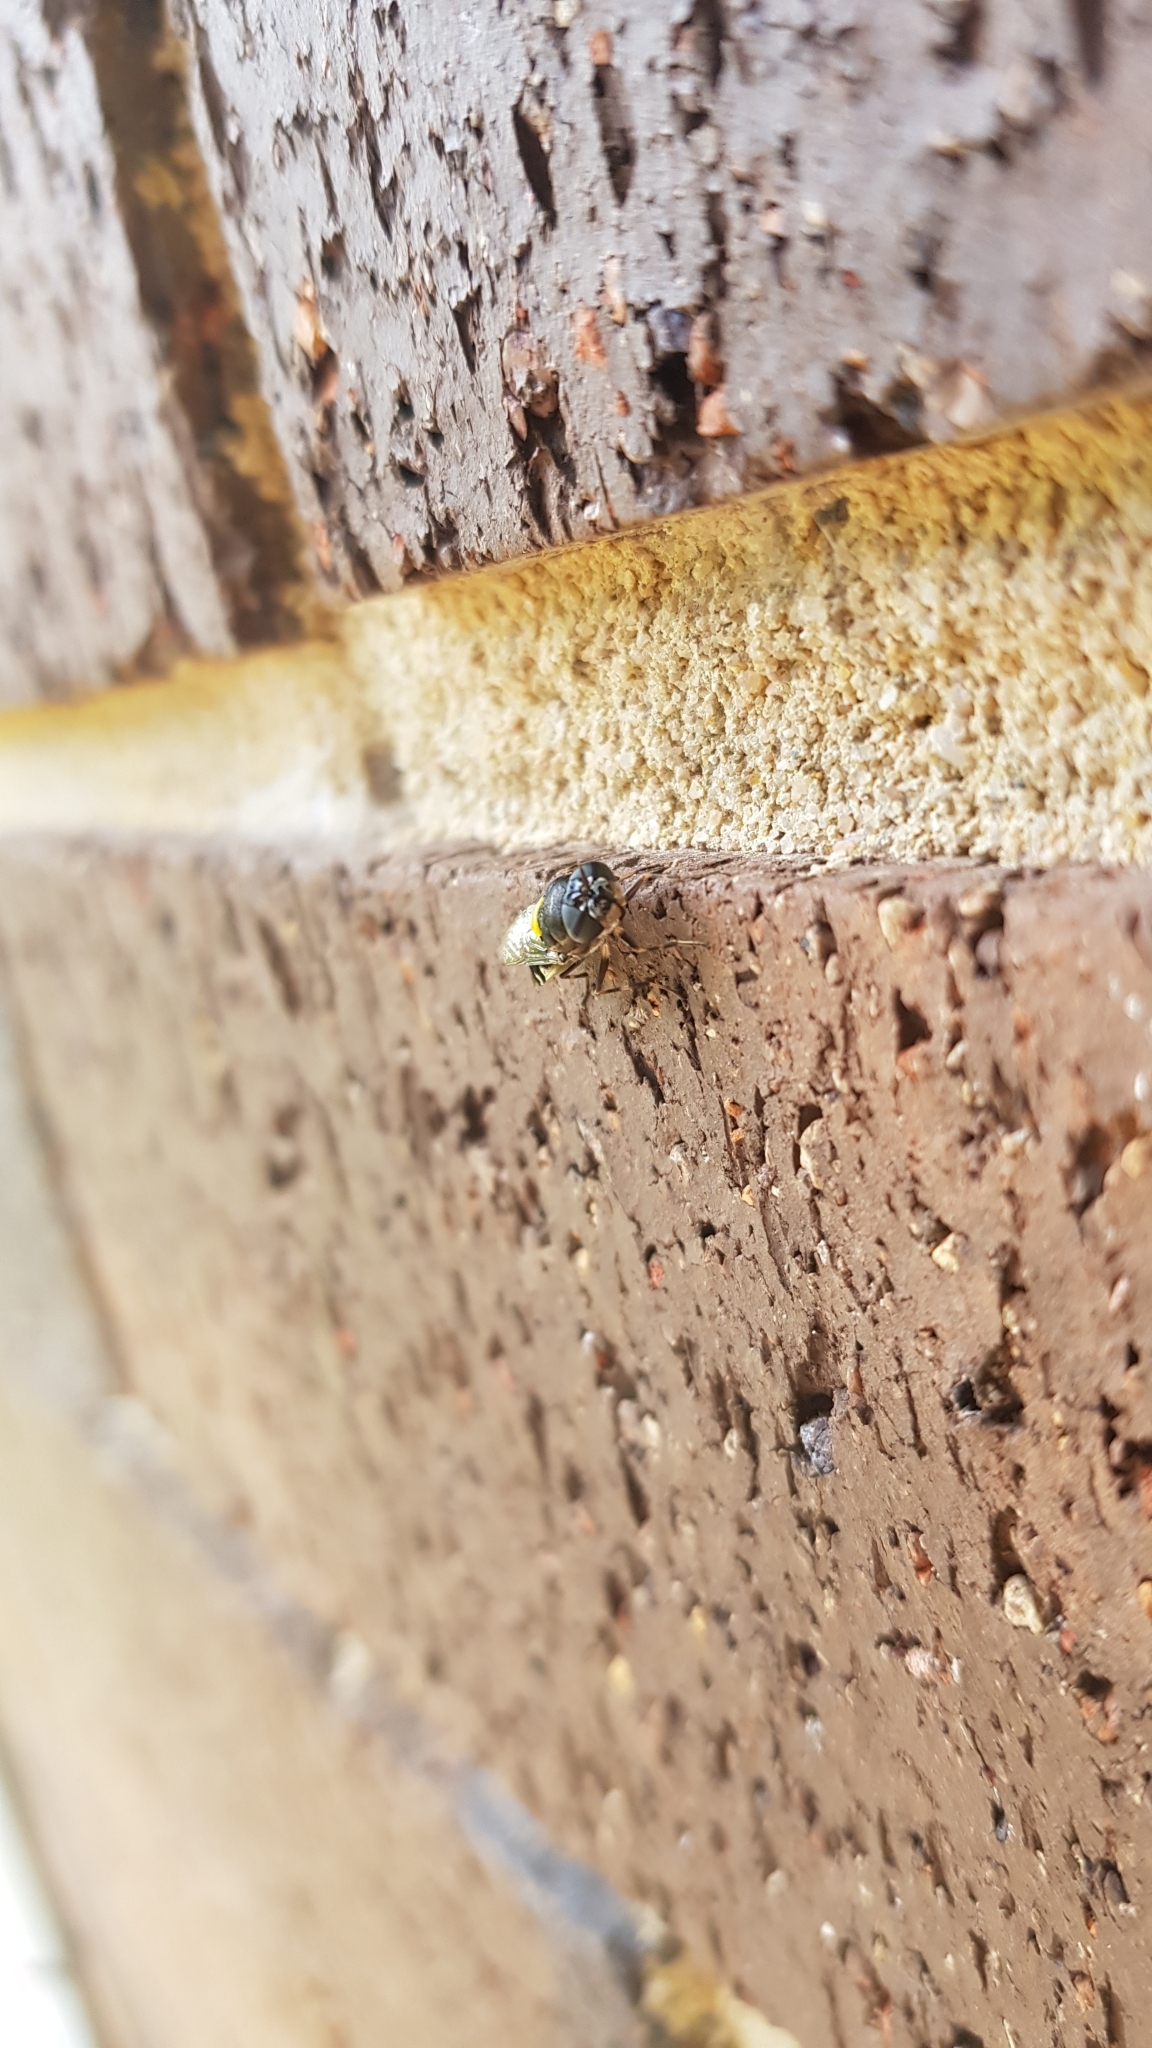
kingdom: Animalia
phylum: Arthropoda
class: Insecta
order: Diptera
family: Stratiomyidae
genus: Odontomyia
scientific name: Odontomyia hunteri
